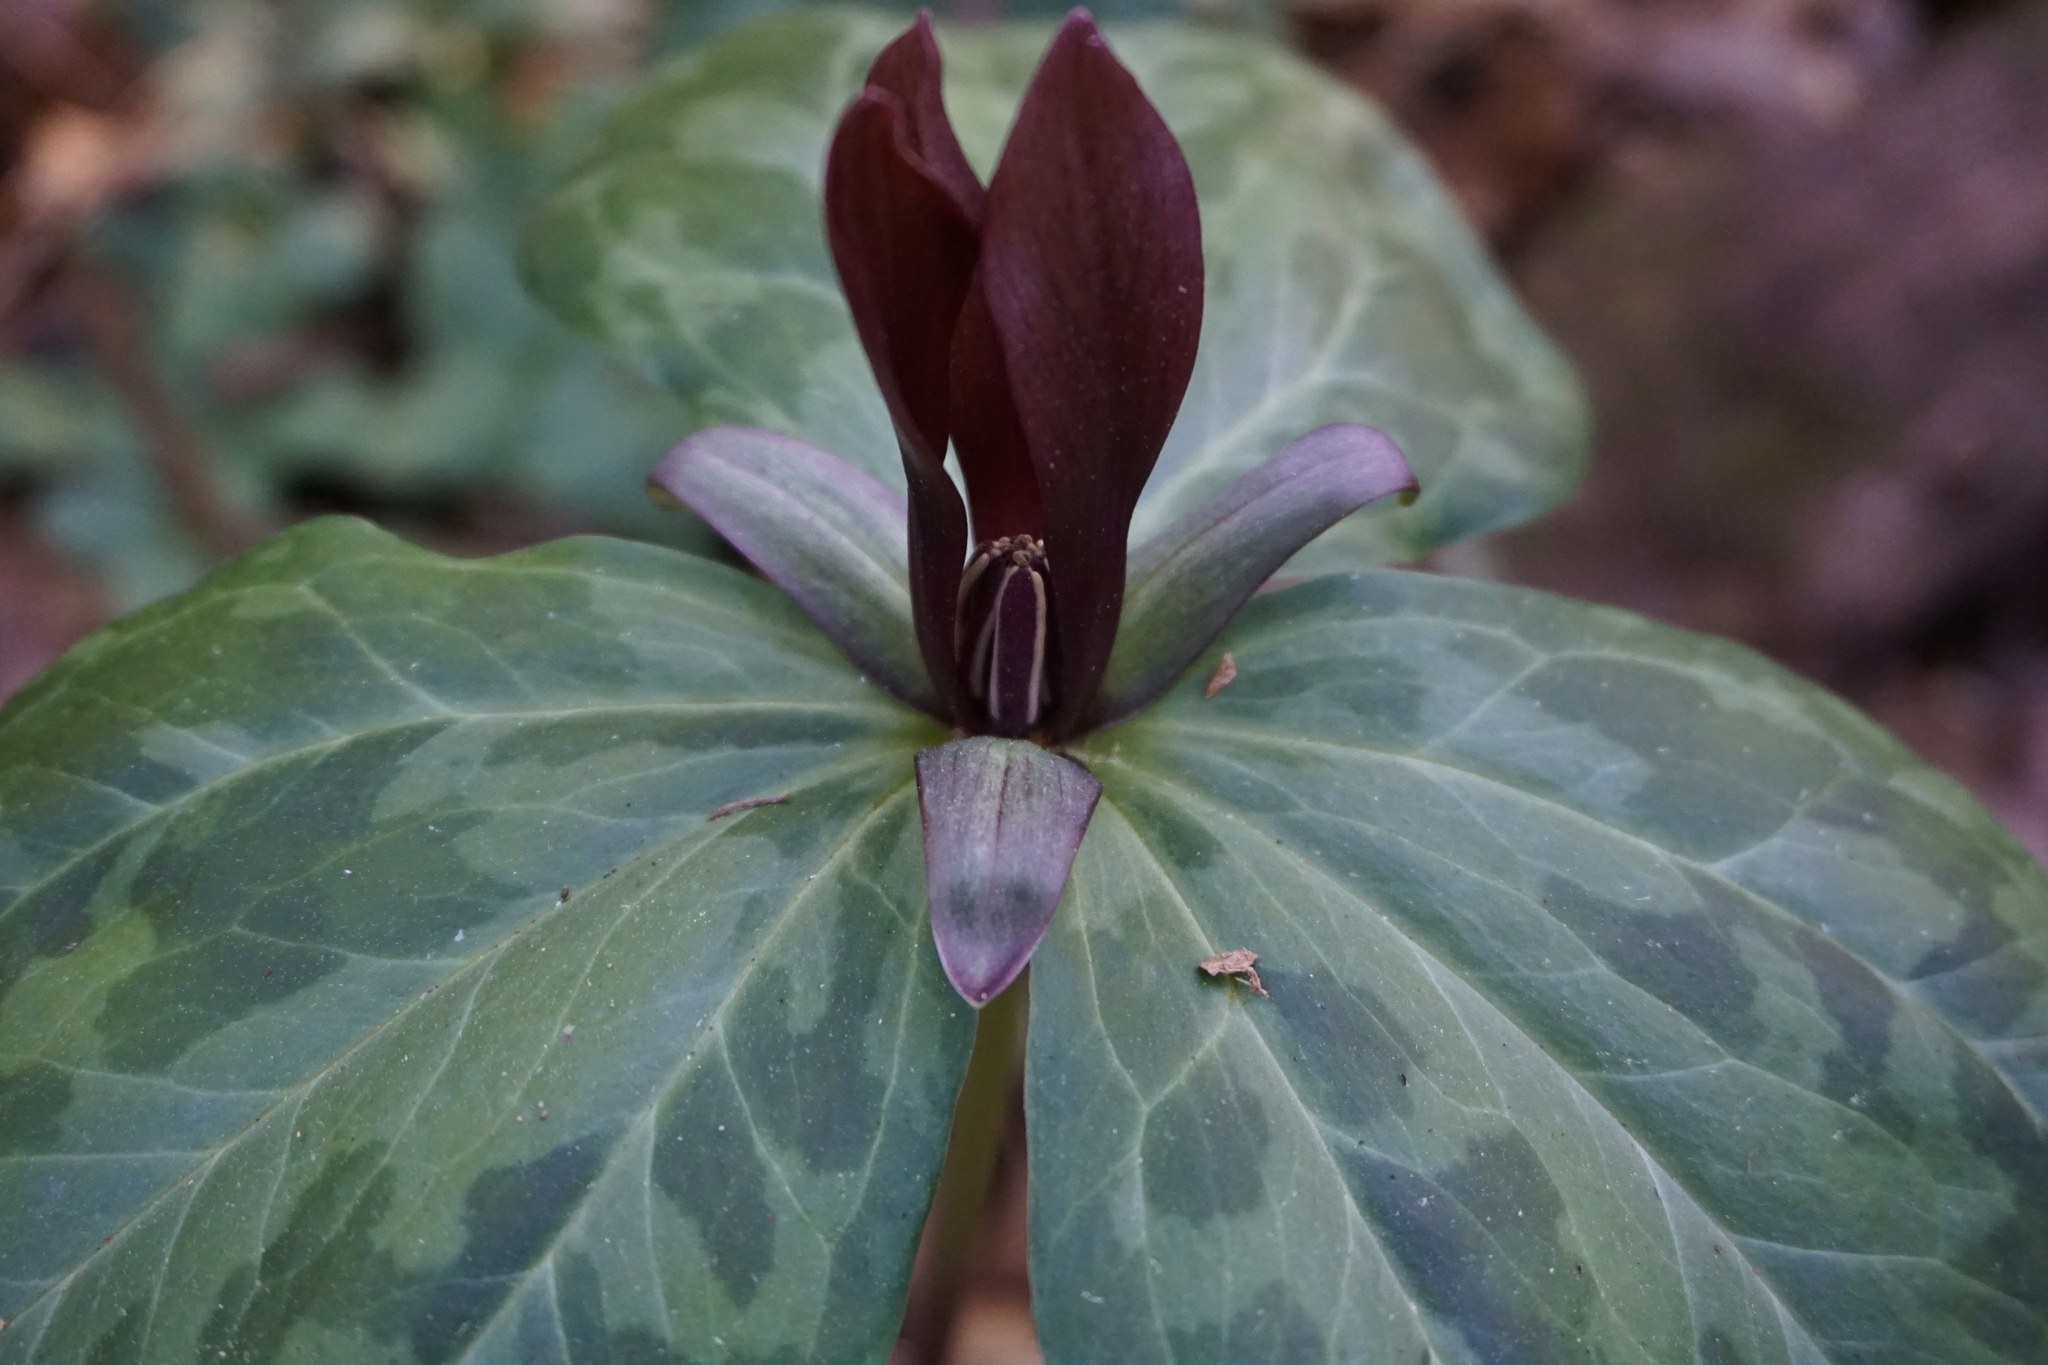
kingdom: Plantae
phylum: Tracheophyta
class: Liliopsida
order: Liliales
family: Melanthiaceae
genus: Trillium
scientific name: Trillium maculatum
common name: Mottled trillium
